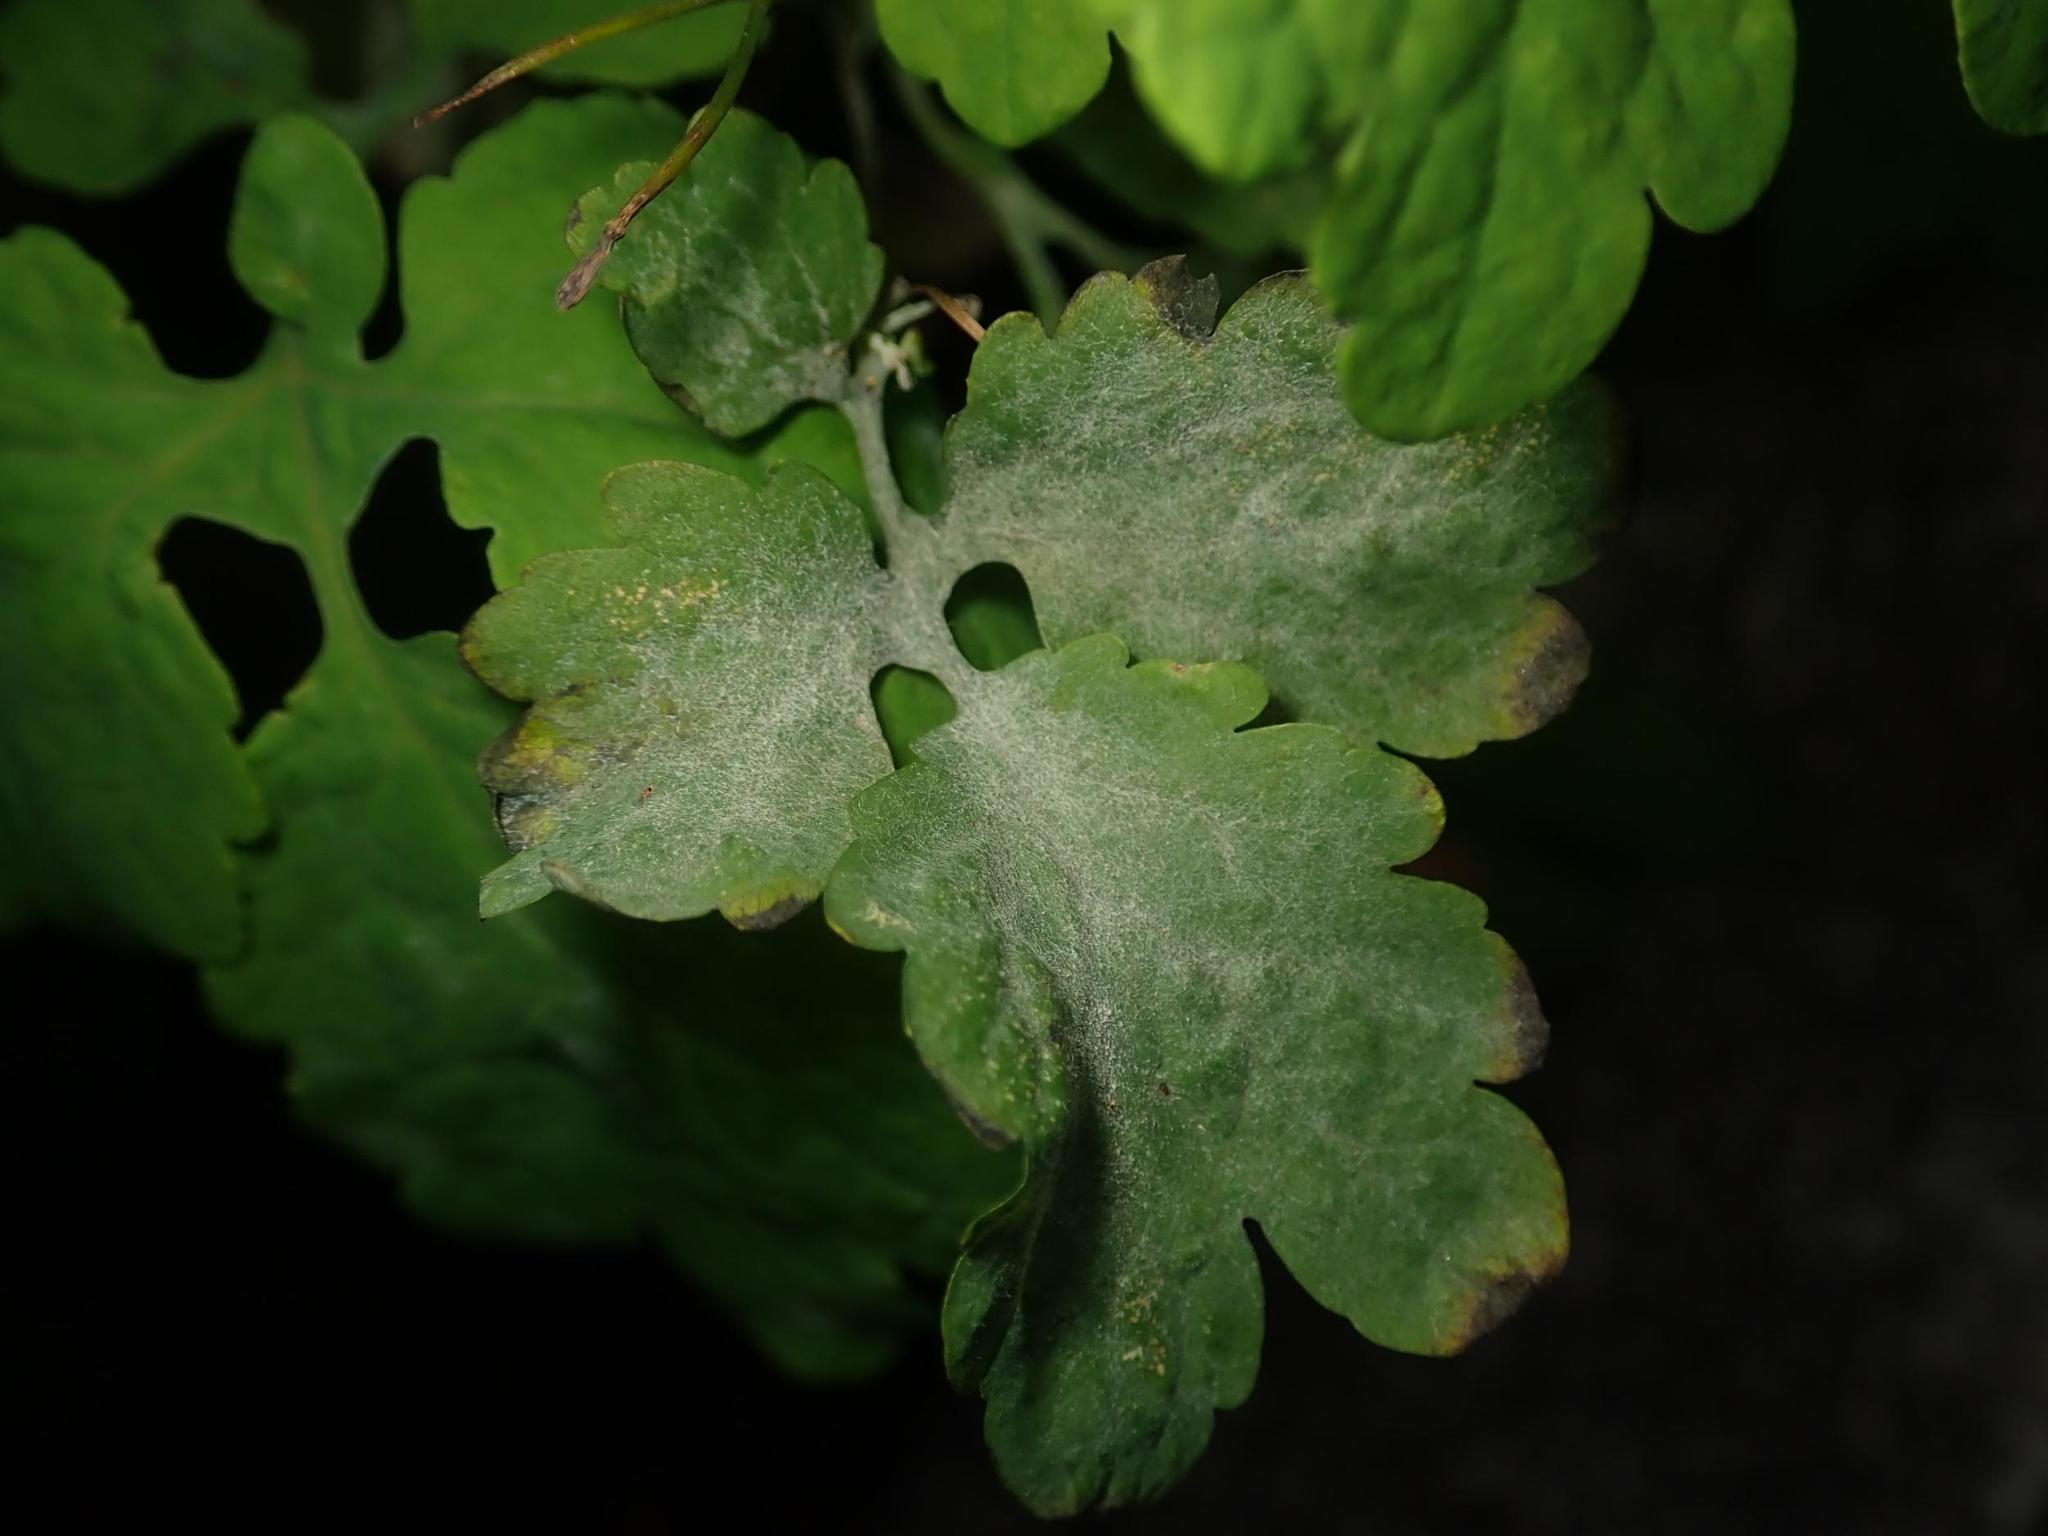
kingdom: Fungi
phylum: Ascomycota
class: Leotiomycetes
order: Helotiales
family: Erysiphaceae
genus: Erysiphe
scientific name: Erysiphe macleayae
